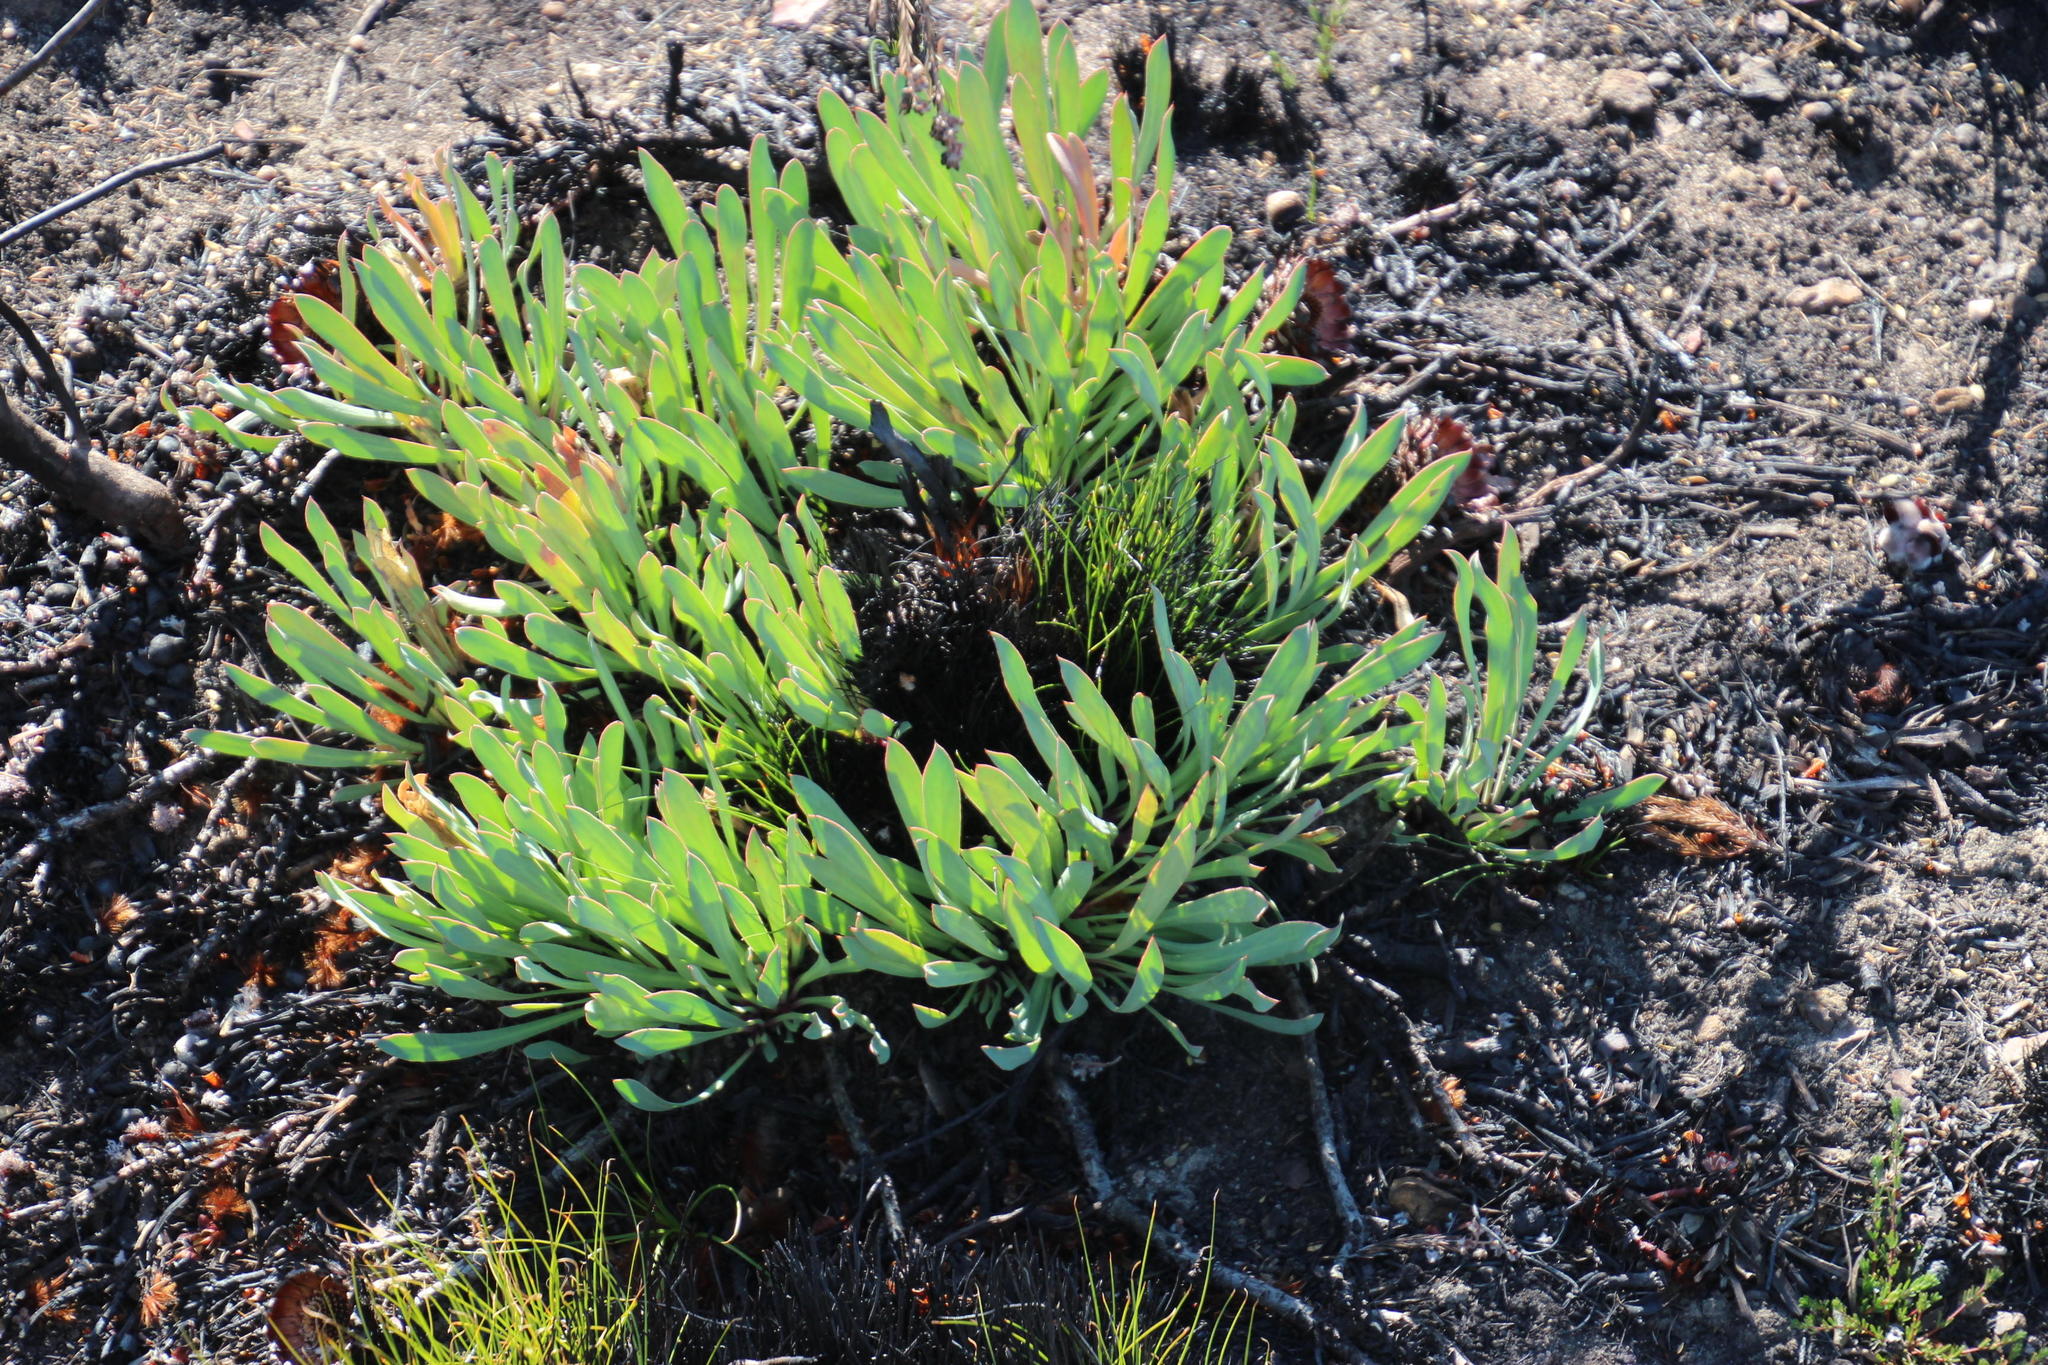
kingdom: Plantae
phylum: Tracheophyta
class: Magnoliopsida
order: Proteales
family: Proteaceae
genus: Protea
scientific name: Protea laevis
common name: Smooth-leaf sugarbush
